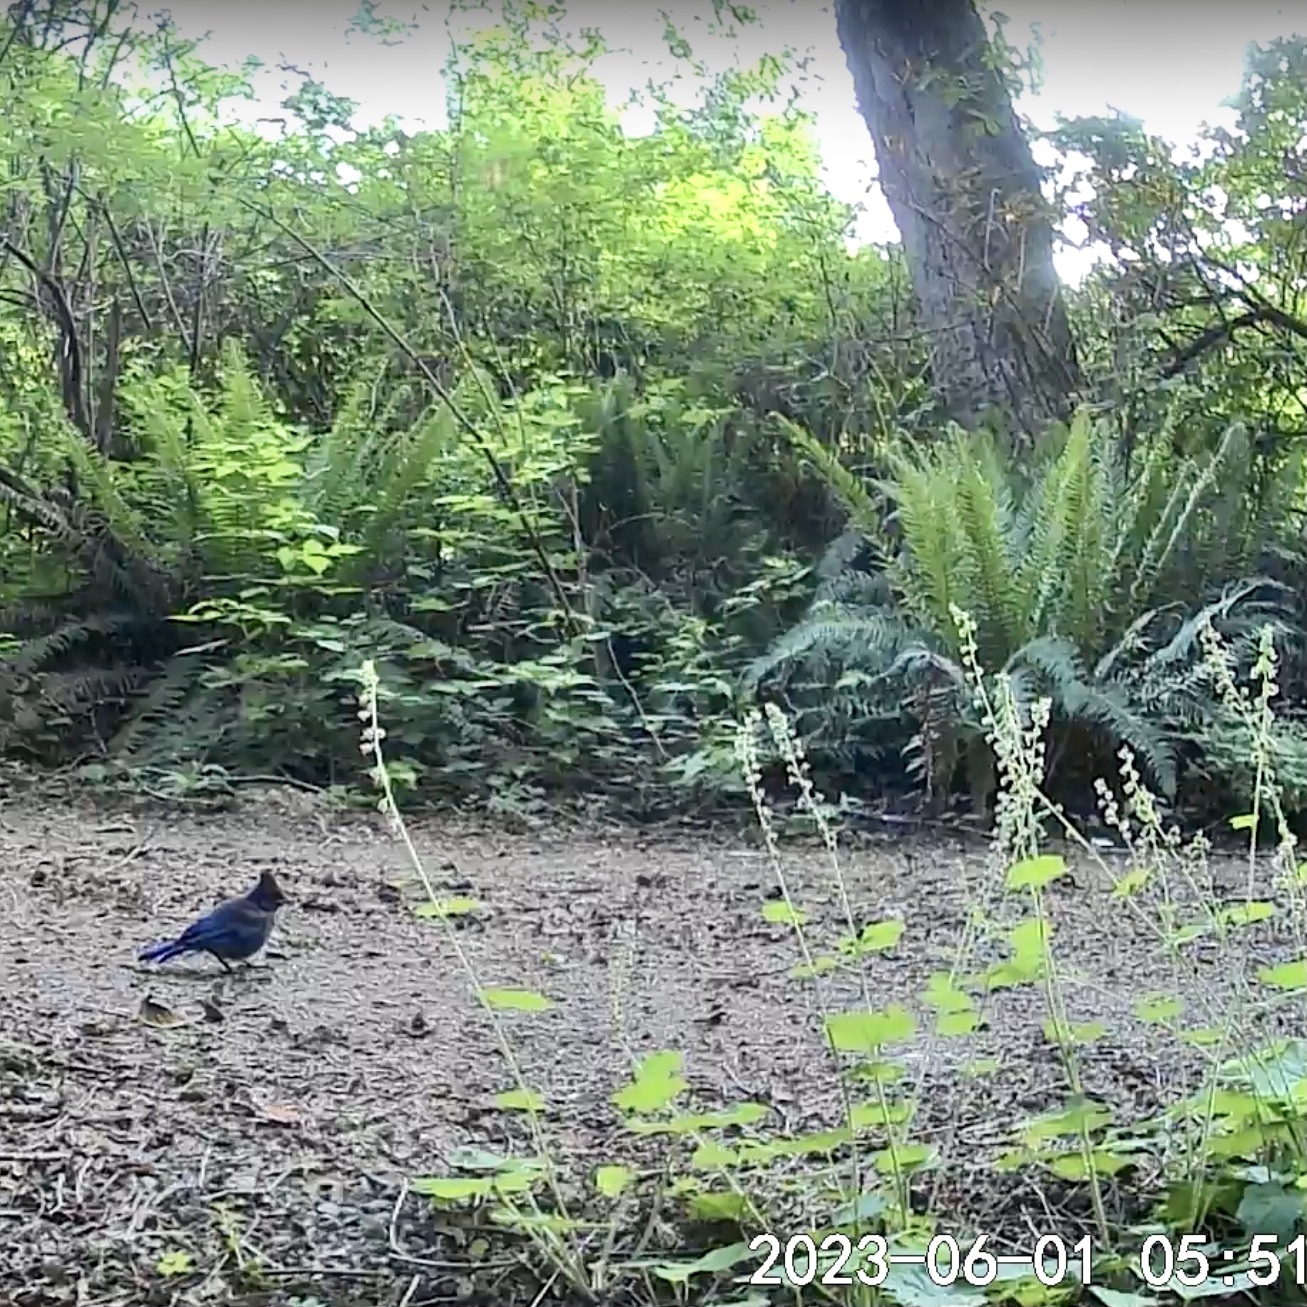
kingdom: Animalia
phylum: Chordata
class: Aves
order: Passeriformes
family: Corvidae
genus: Cyanocitta
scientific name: Cyanocitta stelleri
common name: Steller's jay
